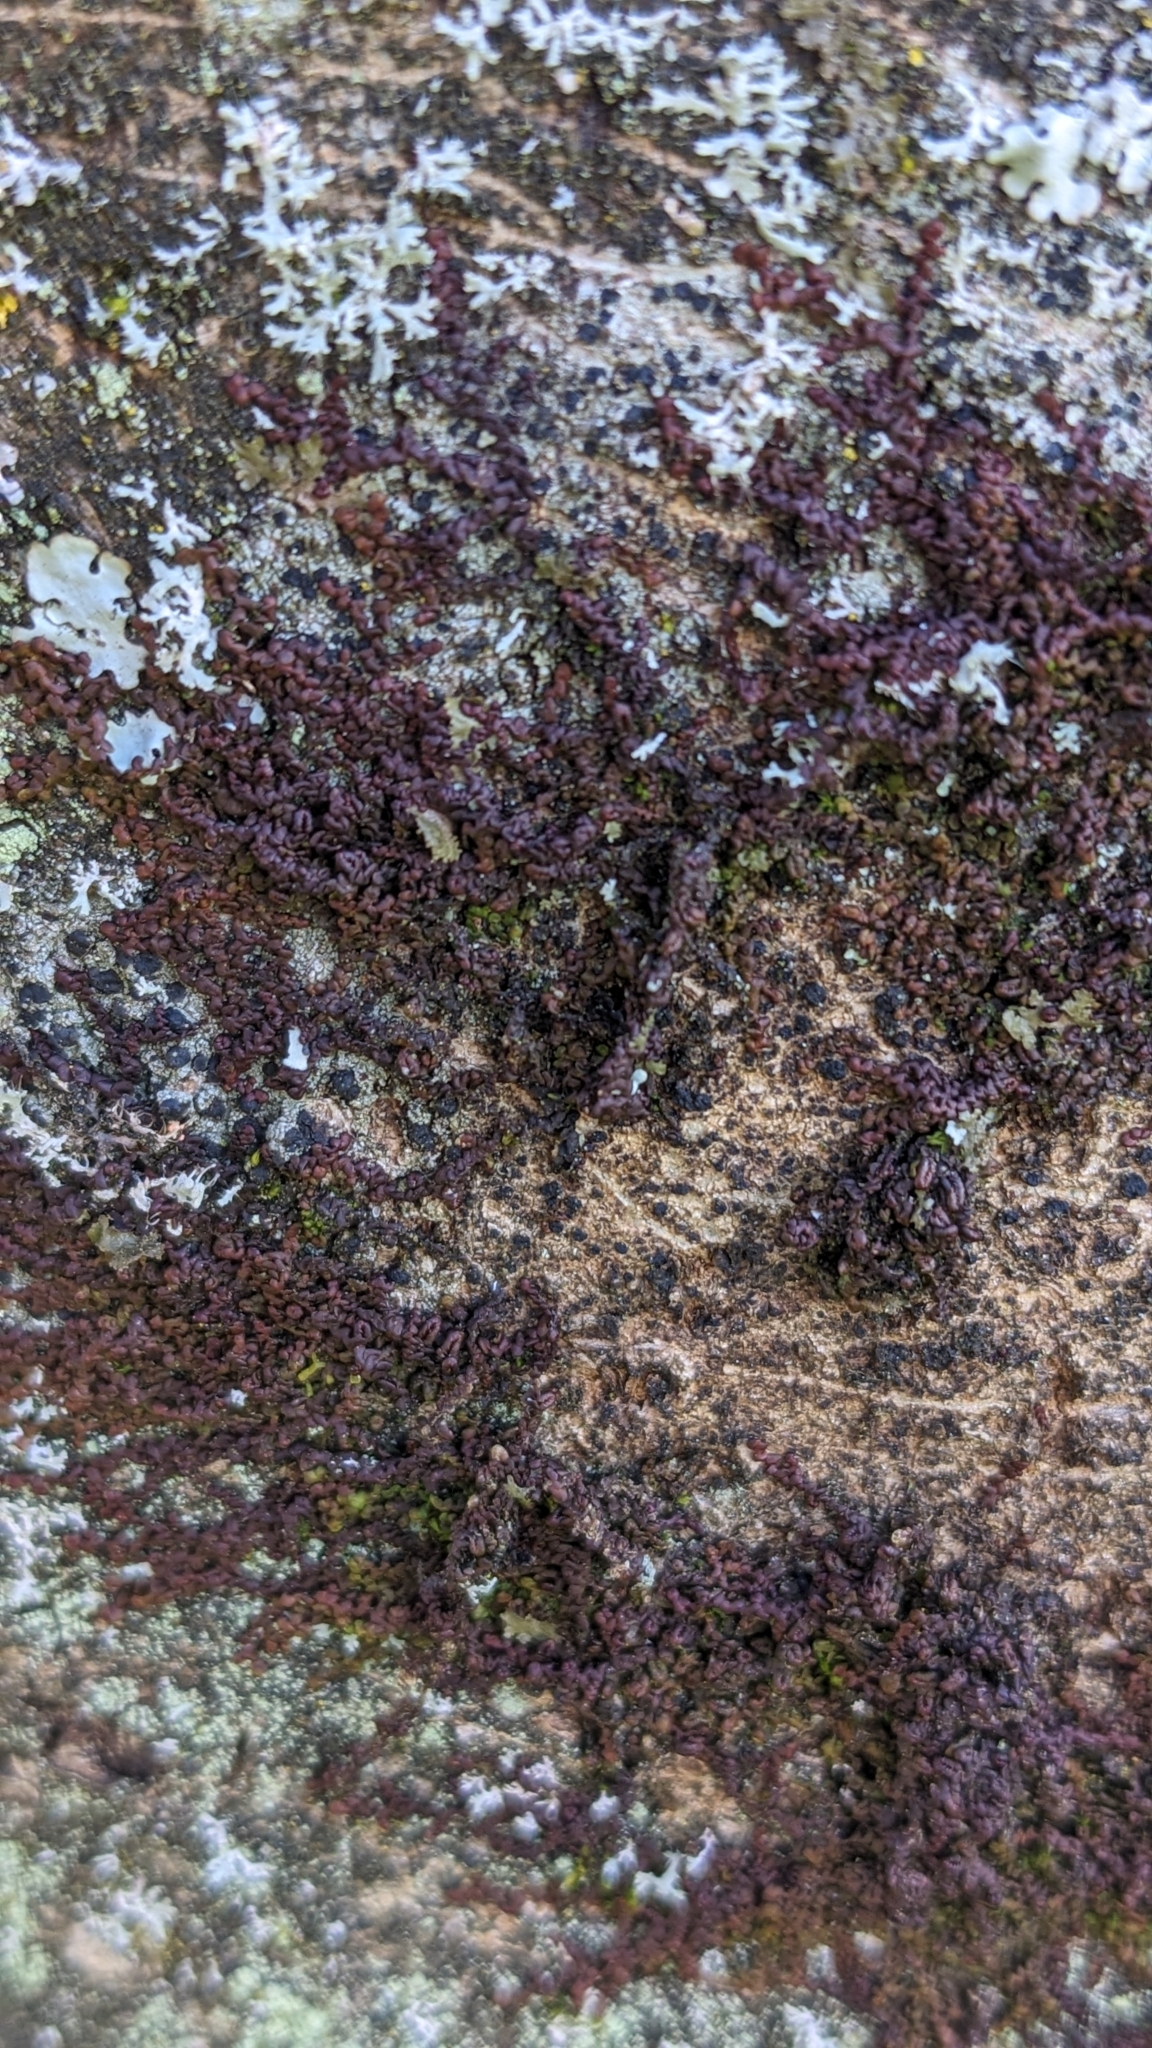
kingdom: Plantae
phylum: Marchantiophyta
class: Jungermanniopsida
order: Porellales
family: Frullaniaceae
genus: Frullania
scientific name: Frullania dilatata
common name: Dilated scalewort
